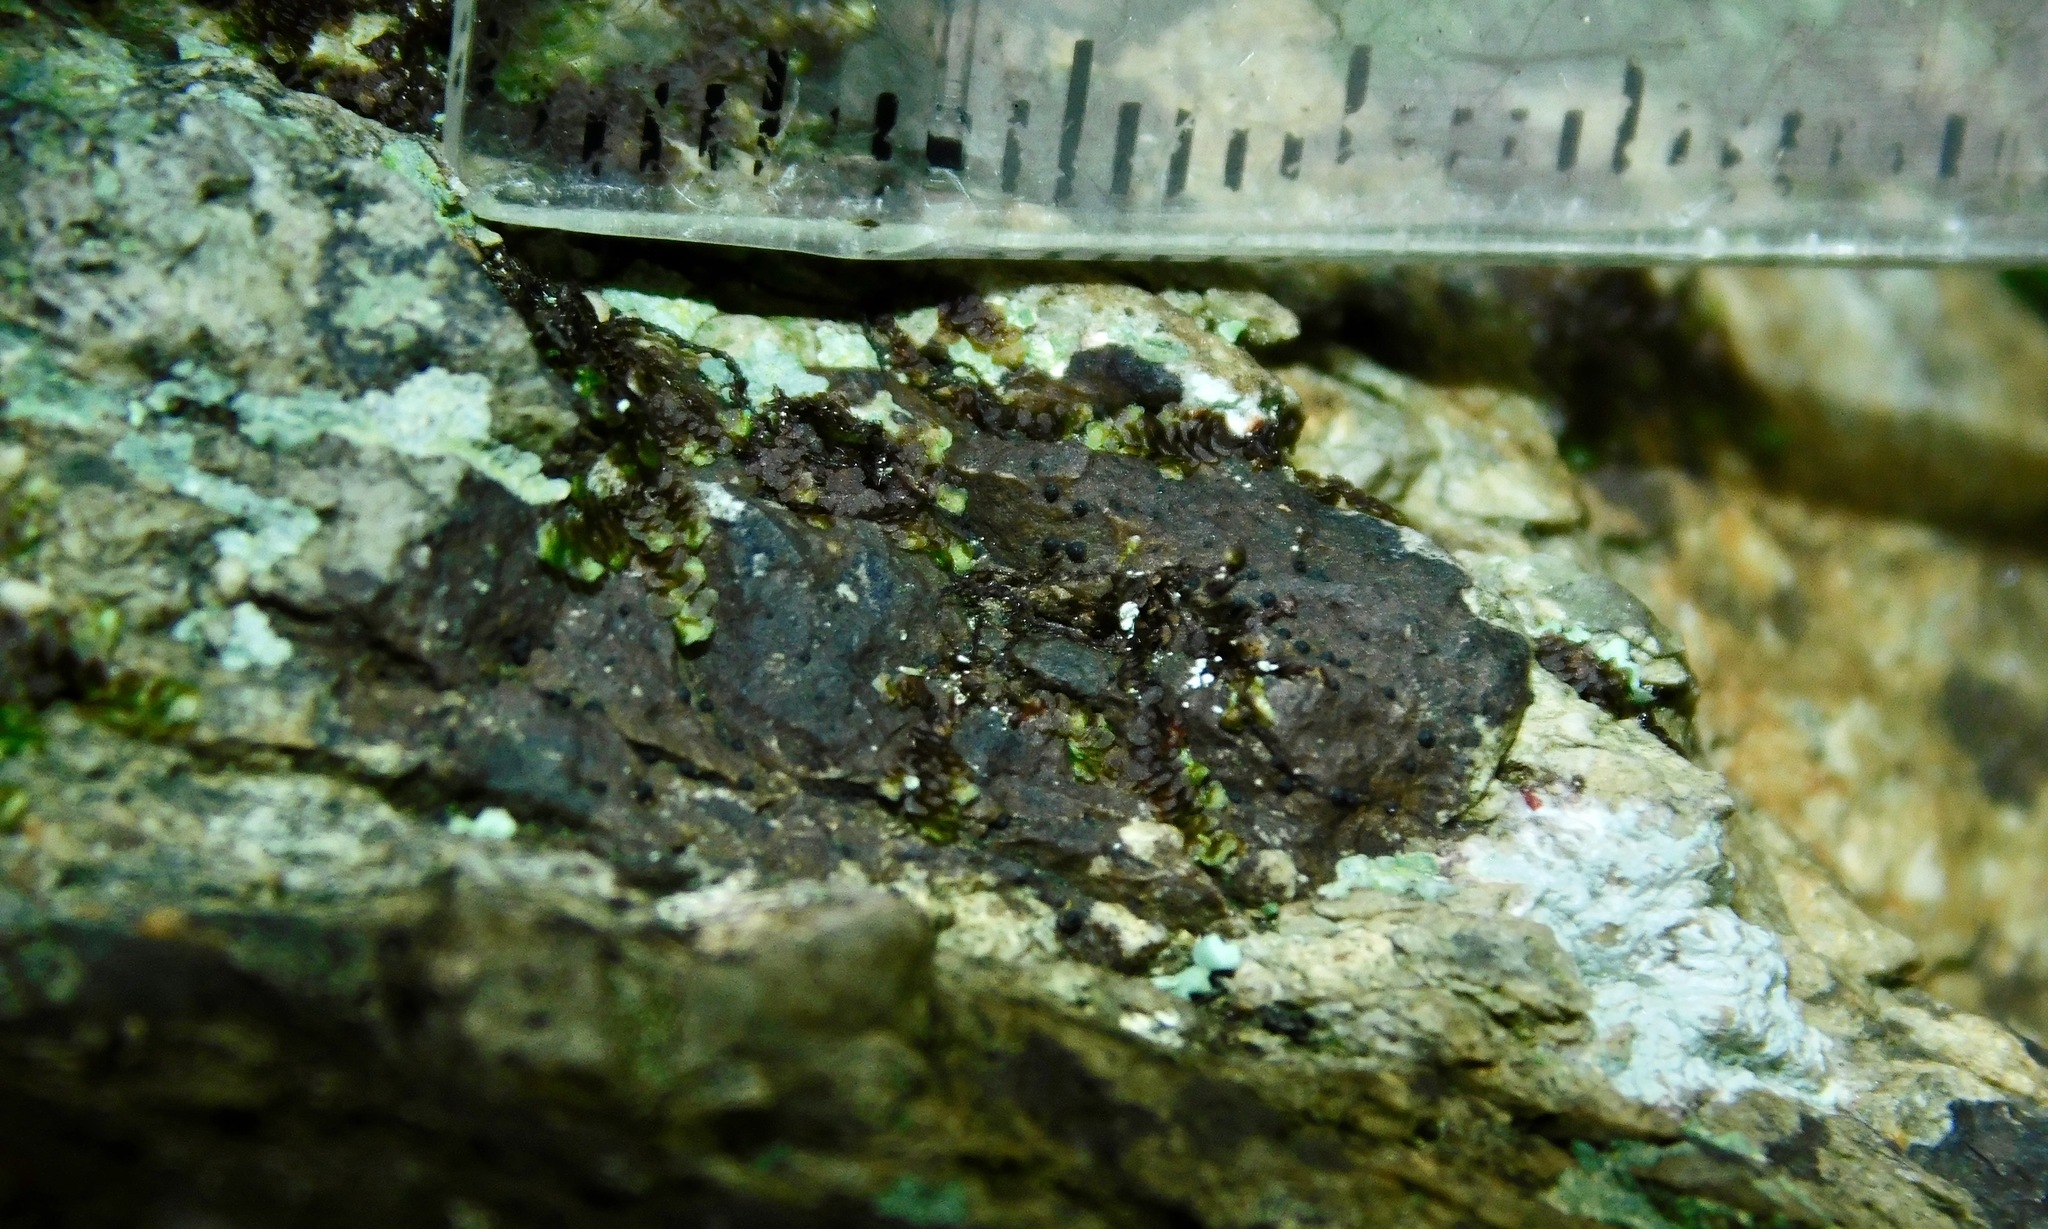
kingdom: Fungi
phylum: Ascomycota
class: Lecanoromycetes
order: Ostropales
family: Porinaceae
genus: Pseudosagedia
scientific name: Pseudosagedia guentheri
